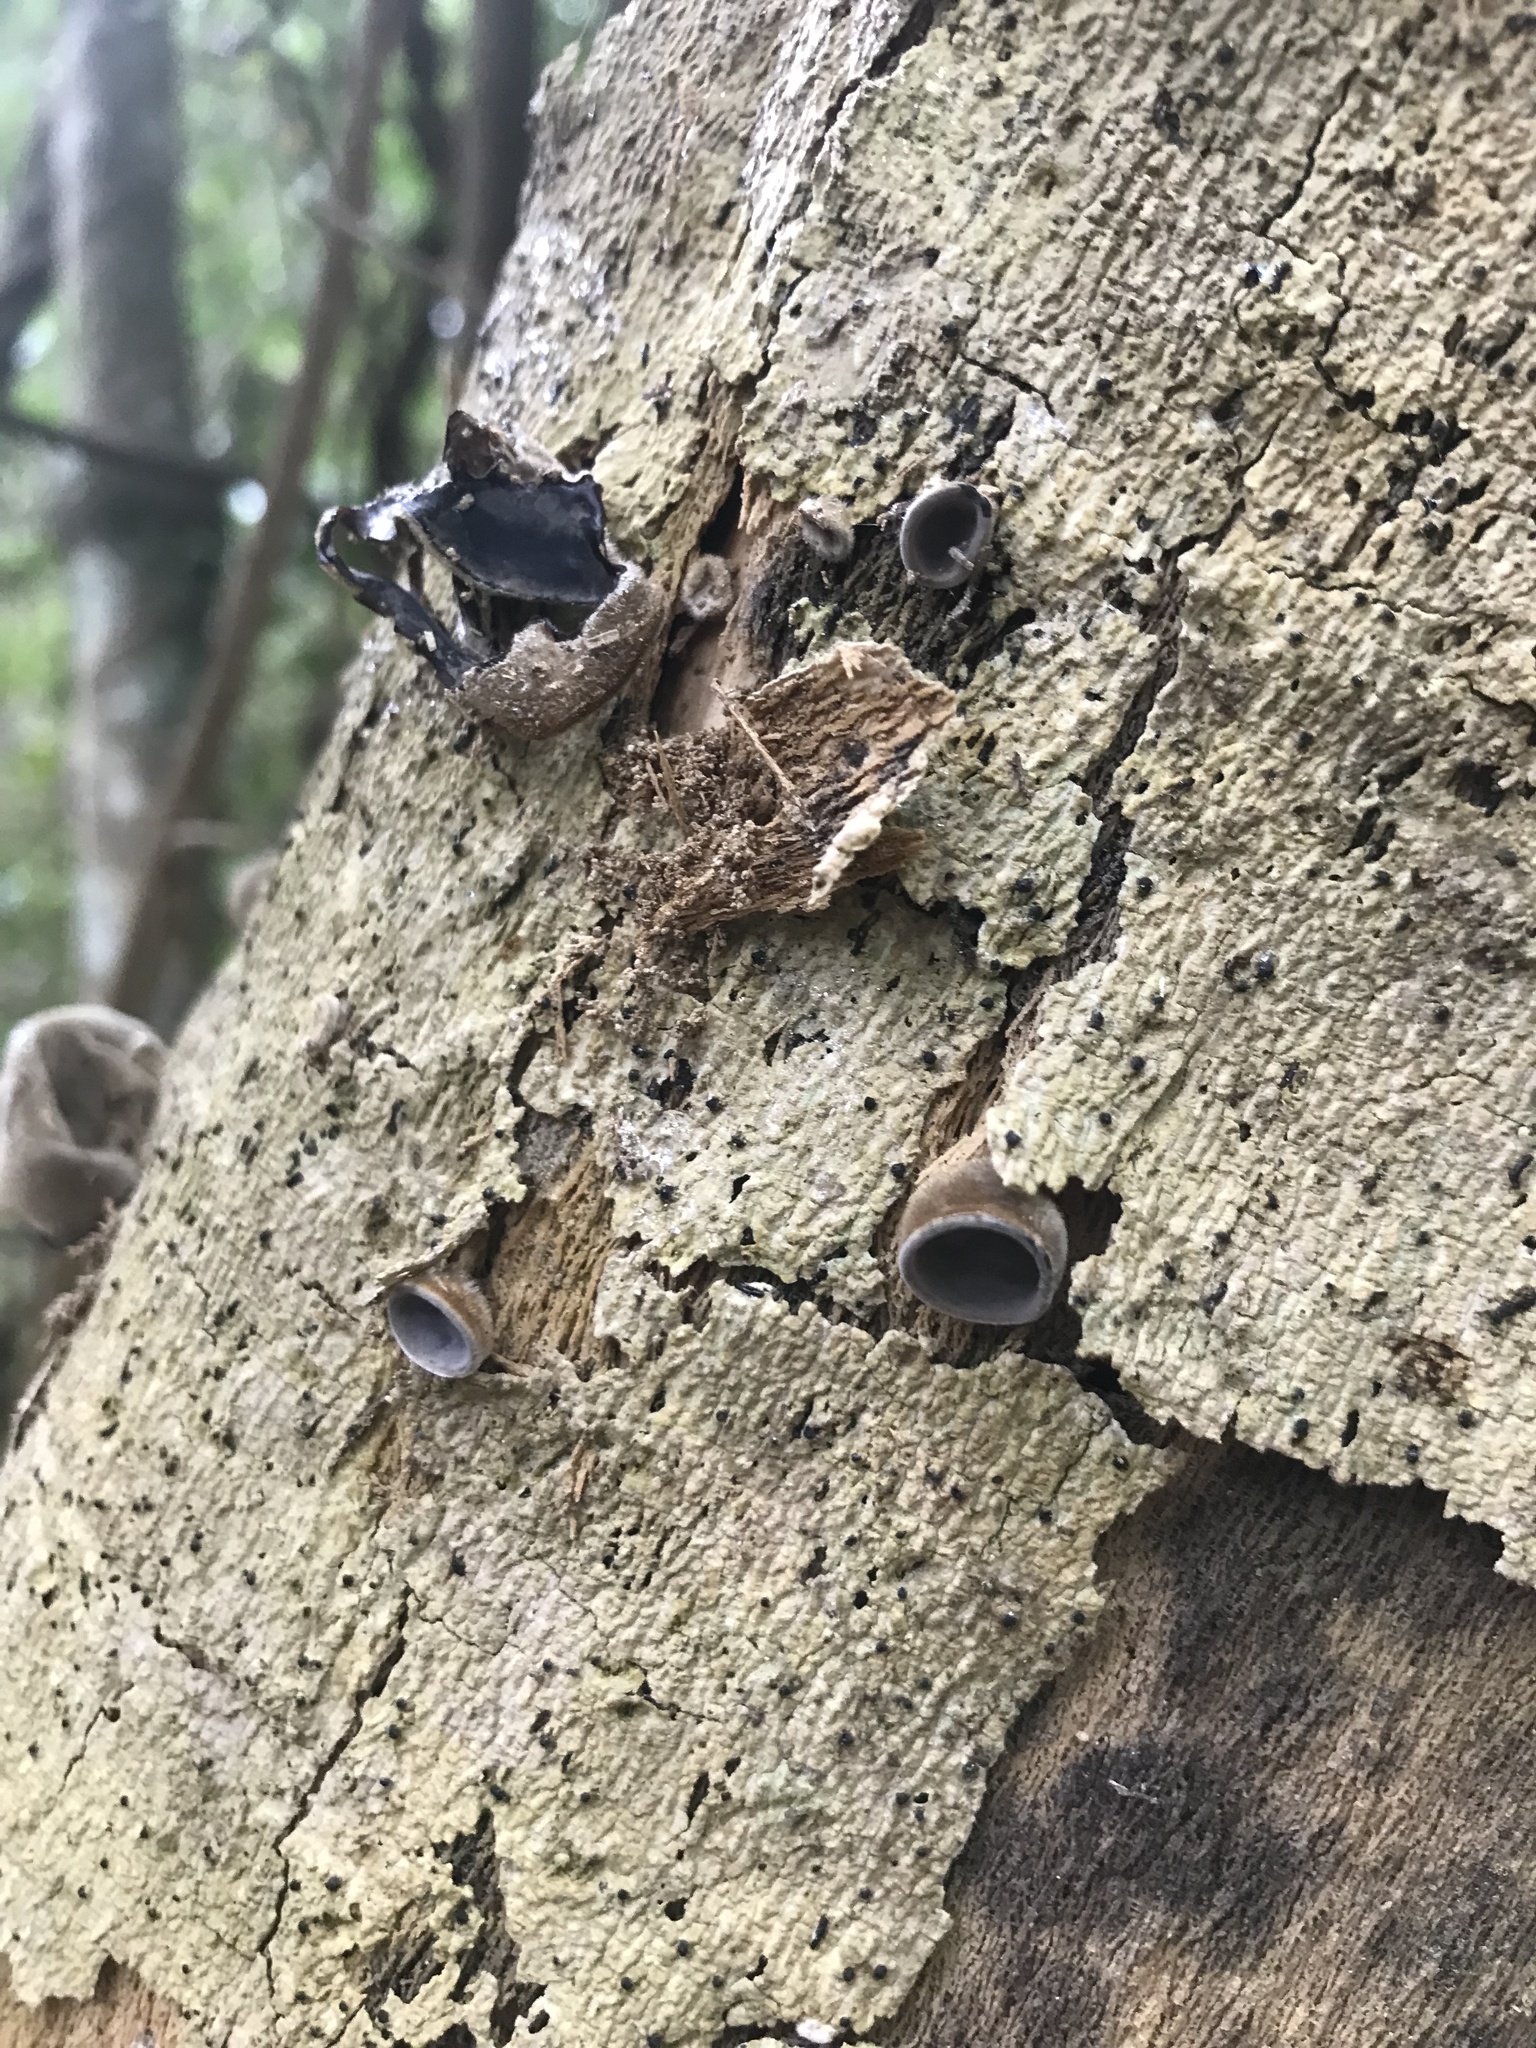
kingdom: Fungi
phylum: Basidiomycota
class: Agaricomycetes
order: Auriculariales
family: Auriculariaceae
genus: Auricularia
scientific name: Auricularia cornea
